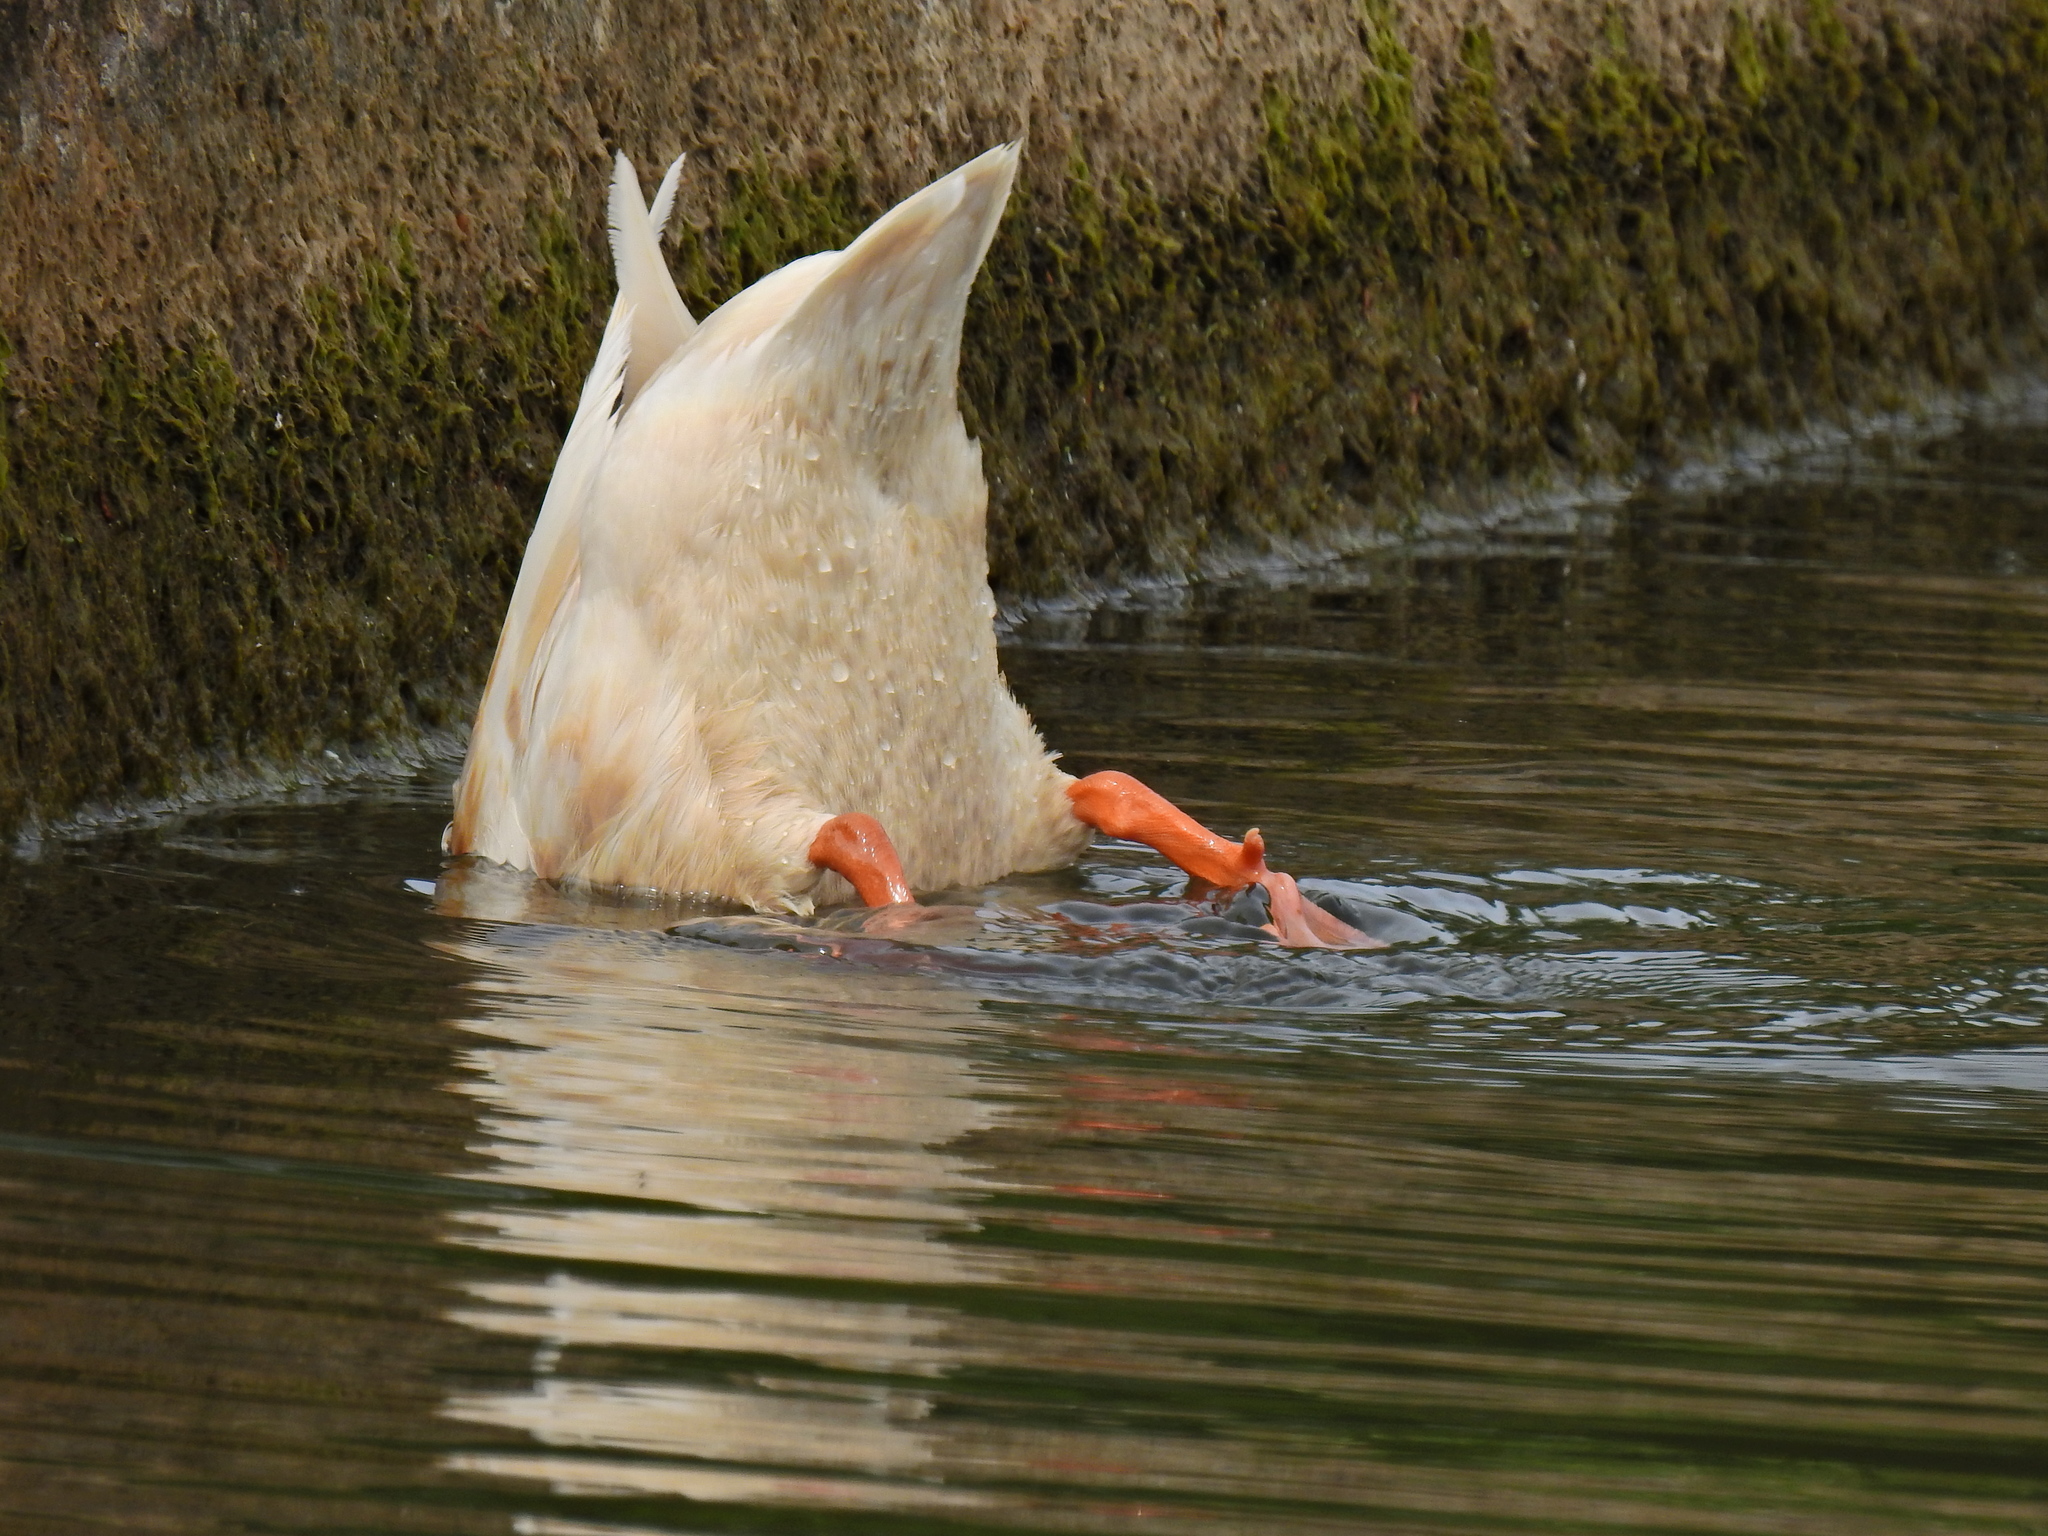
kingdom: Animalia
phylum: Chordata
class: Aves
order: Anseriformes
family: Anatidae
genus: Anas
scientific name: Anas platyrhynchos
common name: Mallard
